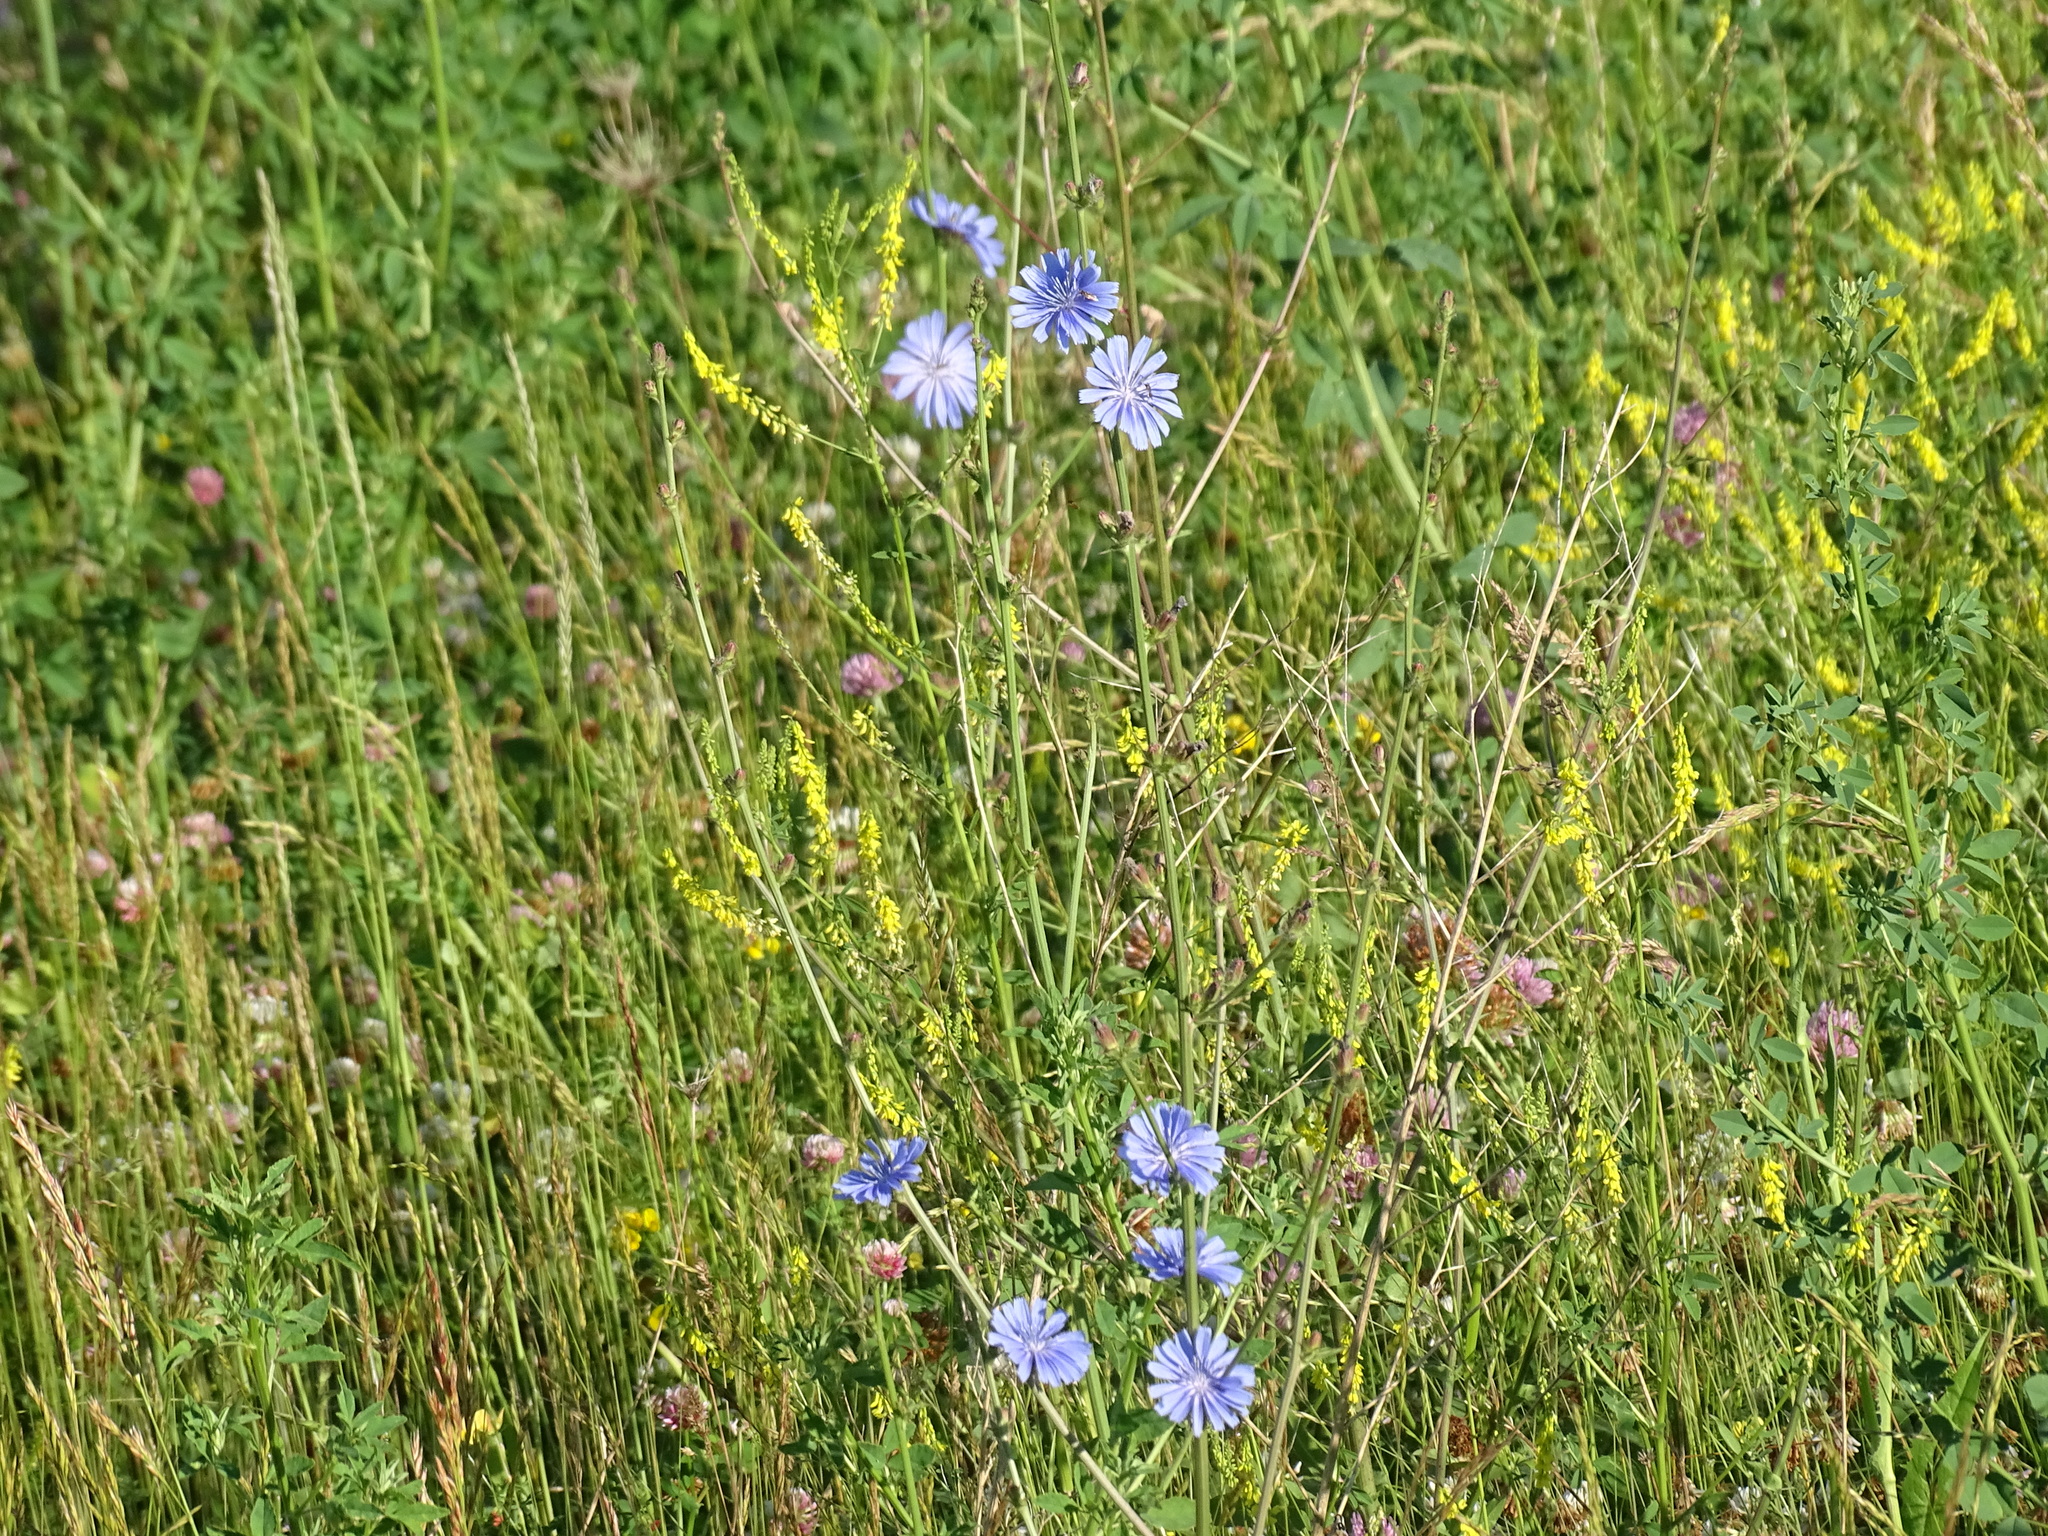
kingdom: Plantae
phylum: Tracheophyta
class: Magnoliopsida
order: Asterales
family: Asteraceae
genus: Cichorium
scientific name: Cichorium intybus
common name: Chicory
